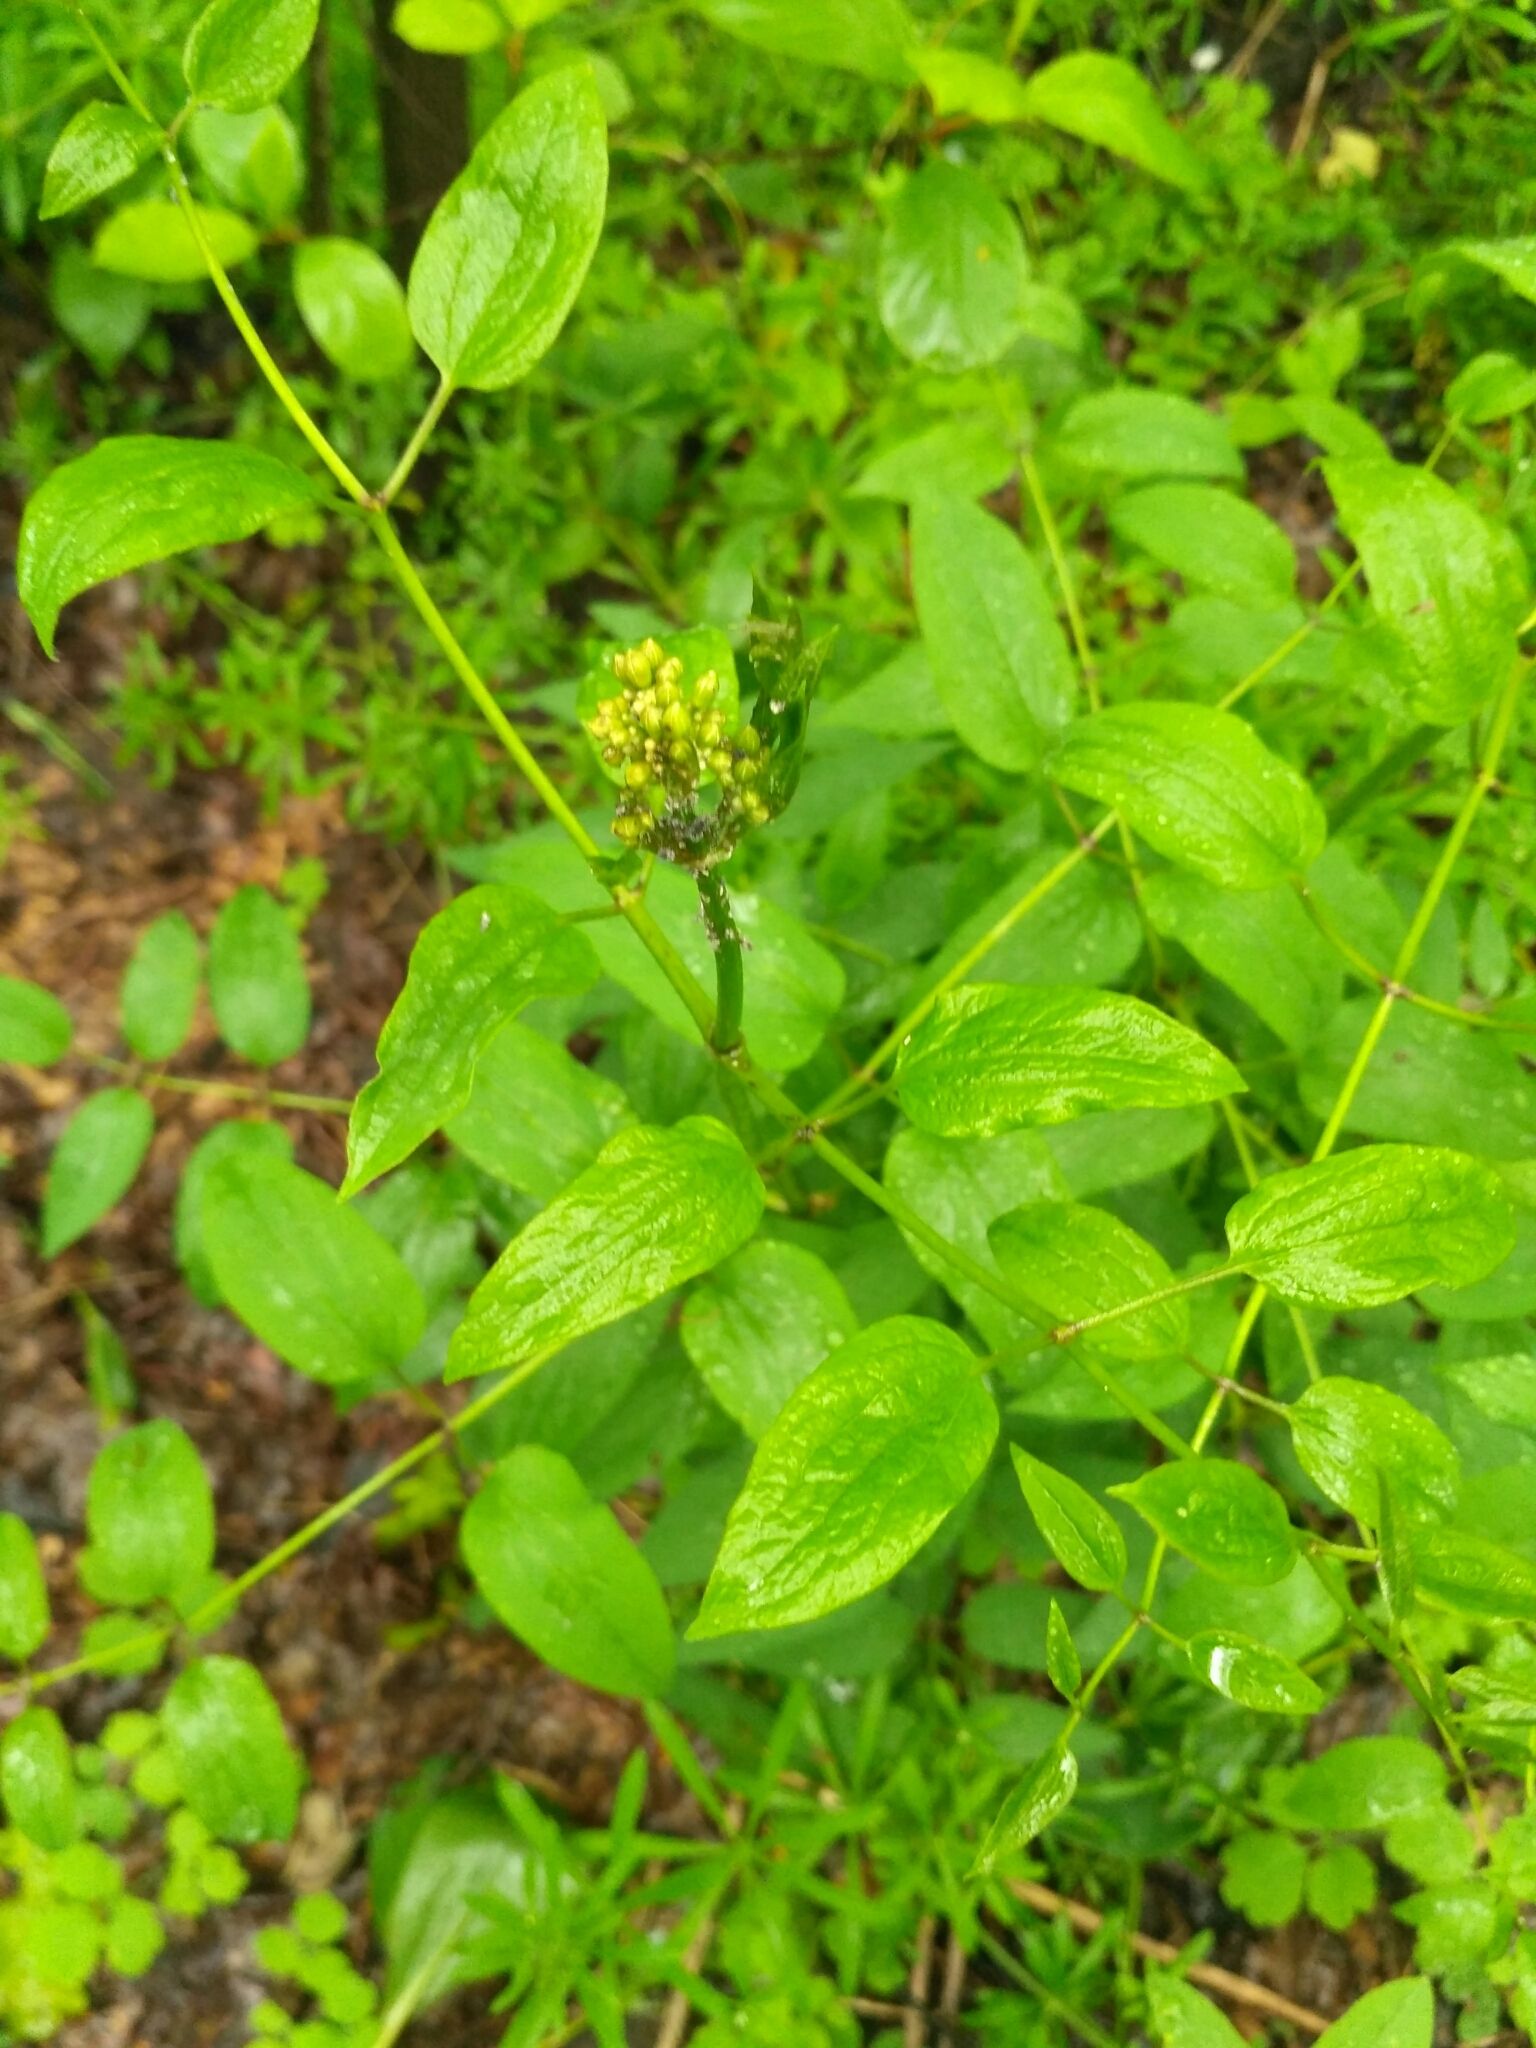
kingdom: Plantae
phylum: Tracheophyta
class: Magnoliopsida
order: Ranunculales
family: Ranunculaceae
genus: Clematis
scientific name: Clematis recta
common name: Ground clematis
